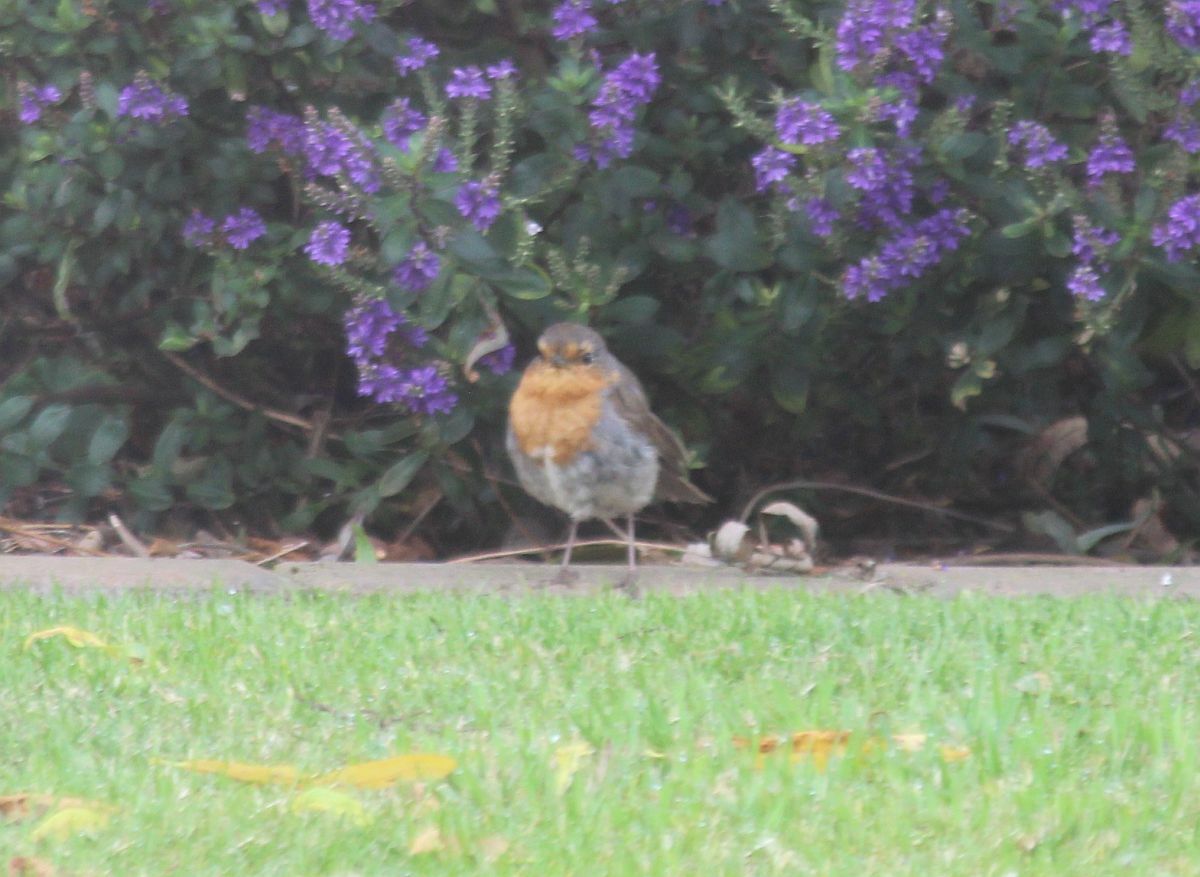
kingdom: Animalia
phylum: Chordata
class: Aves
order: Passeriformes
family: Muscicapidae
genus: Erithacus
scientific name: Erithacus rubecula
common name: European robin
